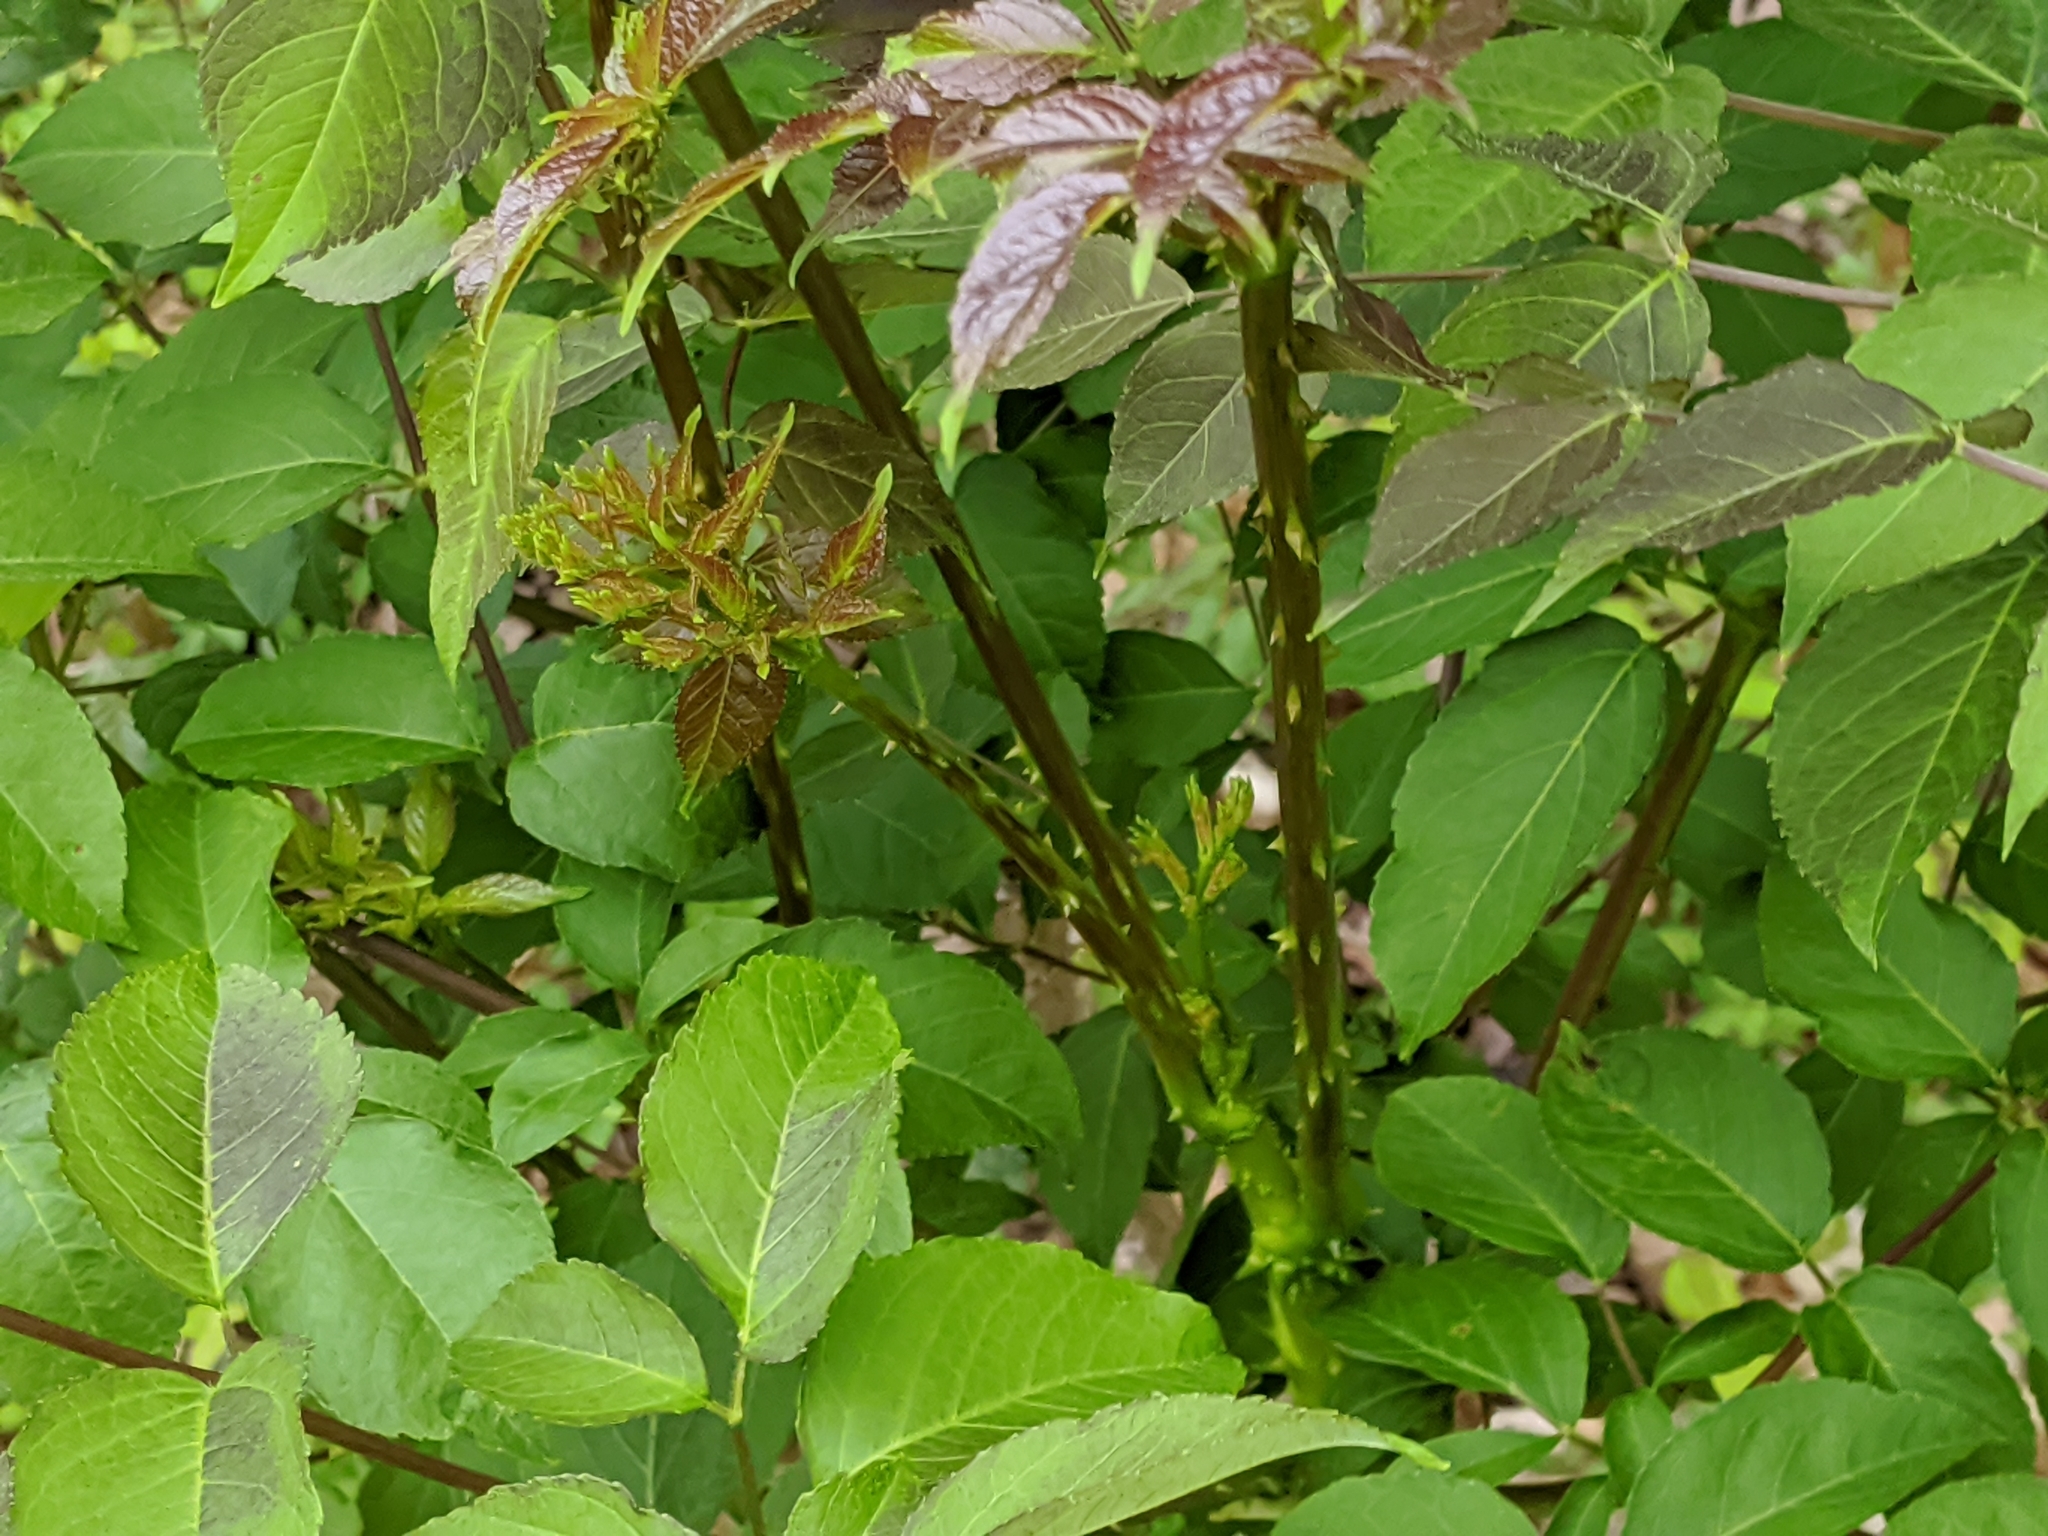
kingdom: Plantae
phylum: Tracheophyta
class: Magnoliopsida
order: Apiales
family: Araliaceae
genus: Aralia
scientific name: Aralia spinosa
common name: Hercules'-club
